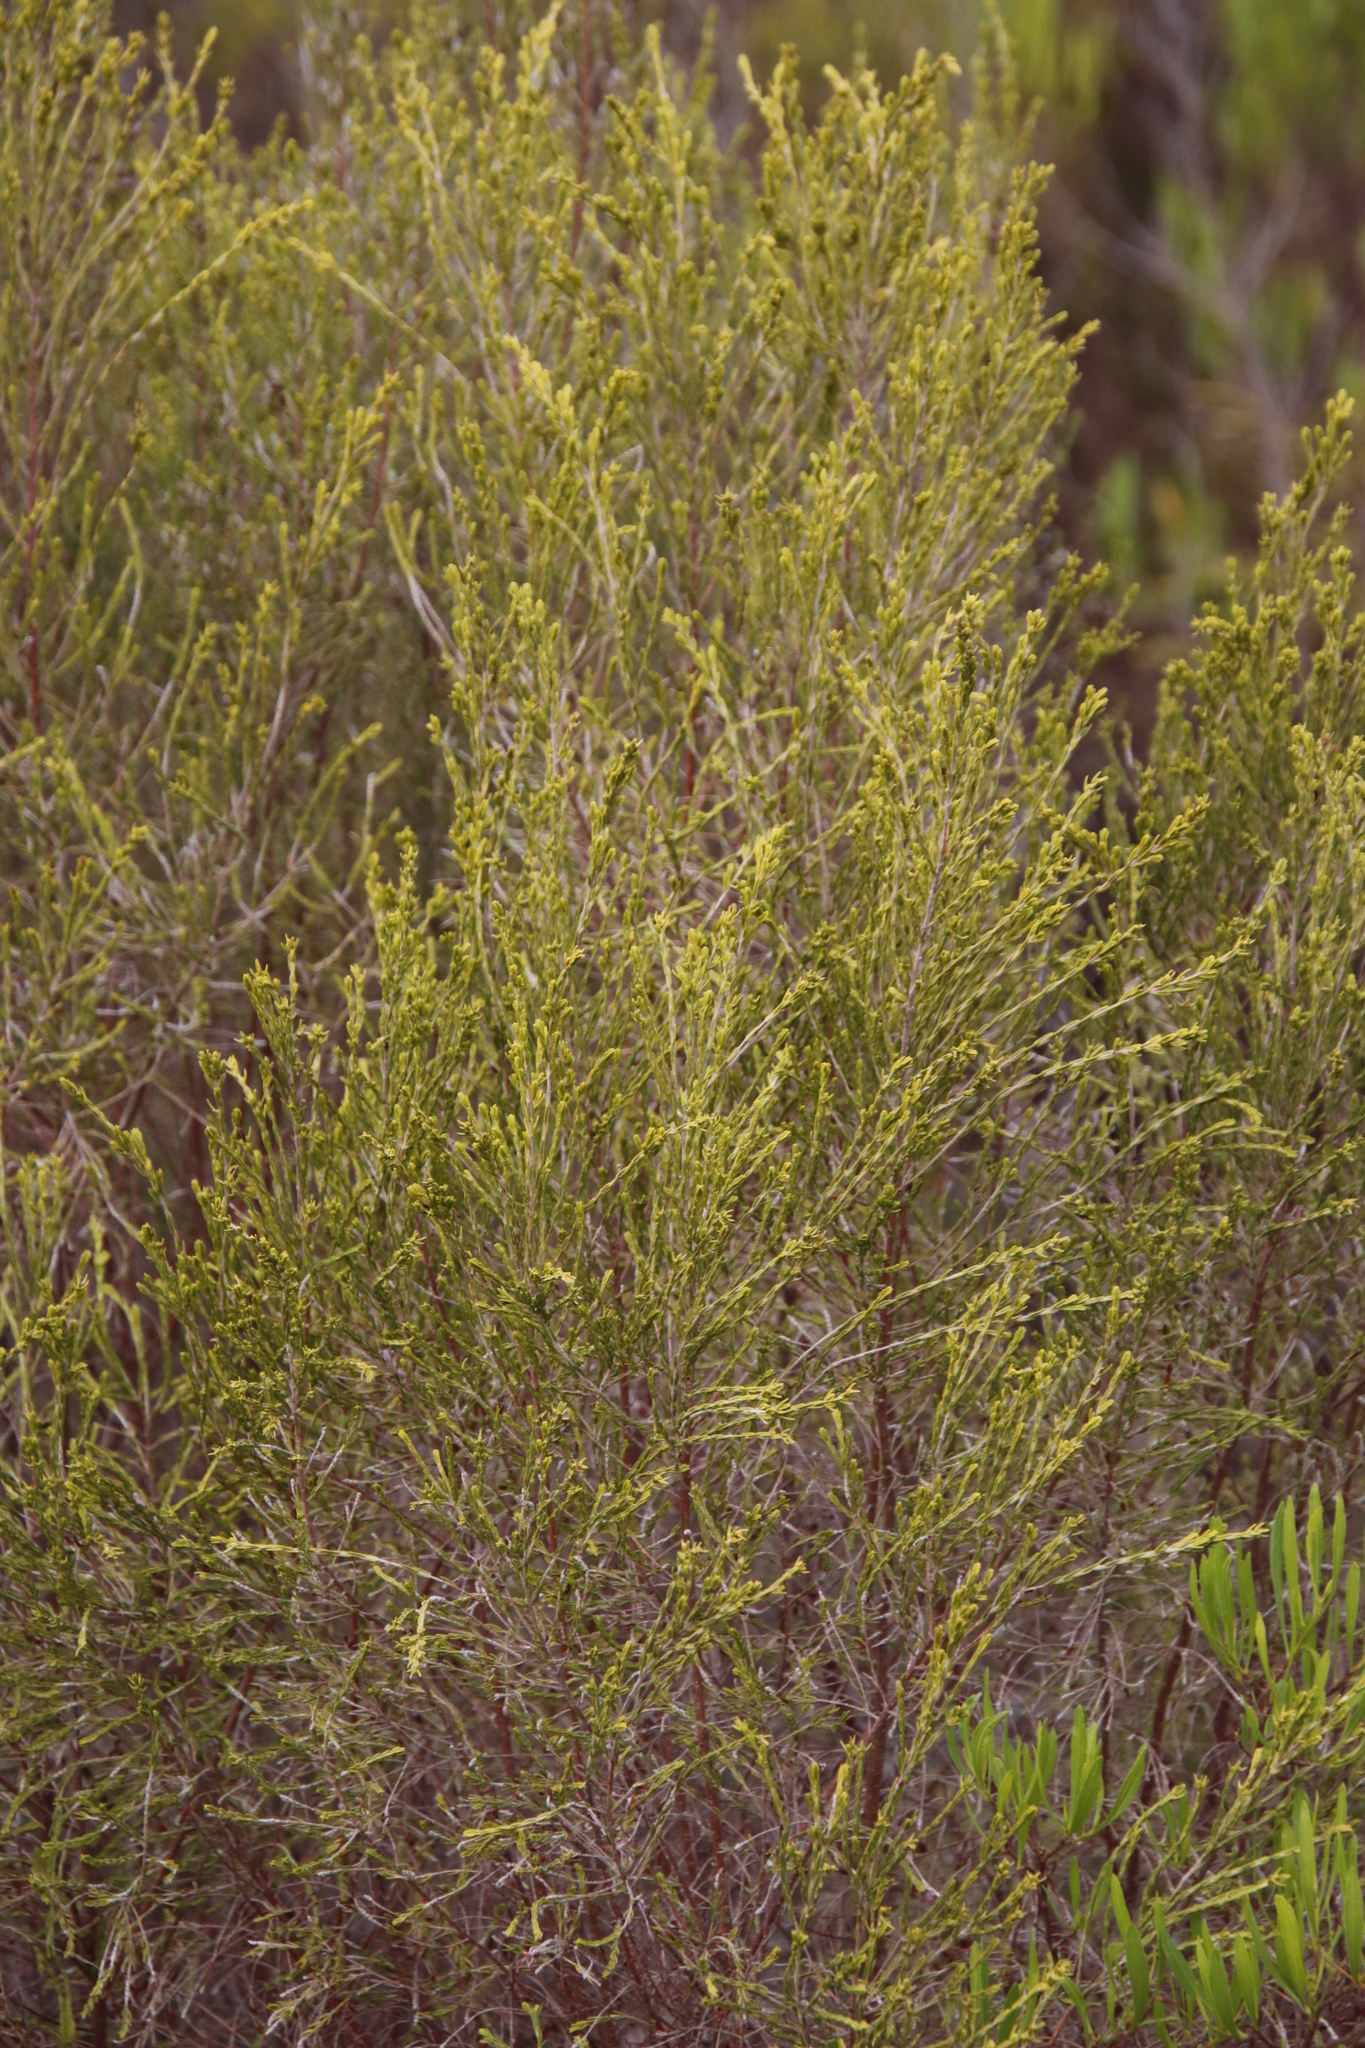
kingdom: Plantae
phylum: Tracheophyta
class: Magnoliopsida
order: Malvales
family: Thymelaeaceae
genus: Passerina
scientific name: Passerina corymbosa
